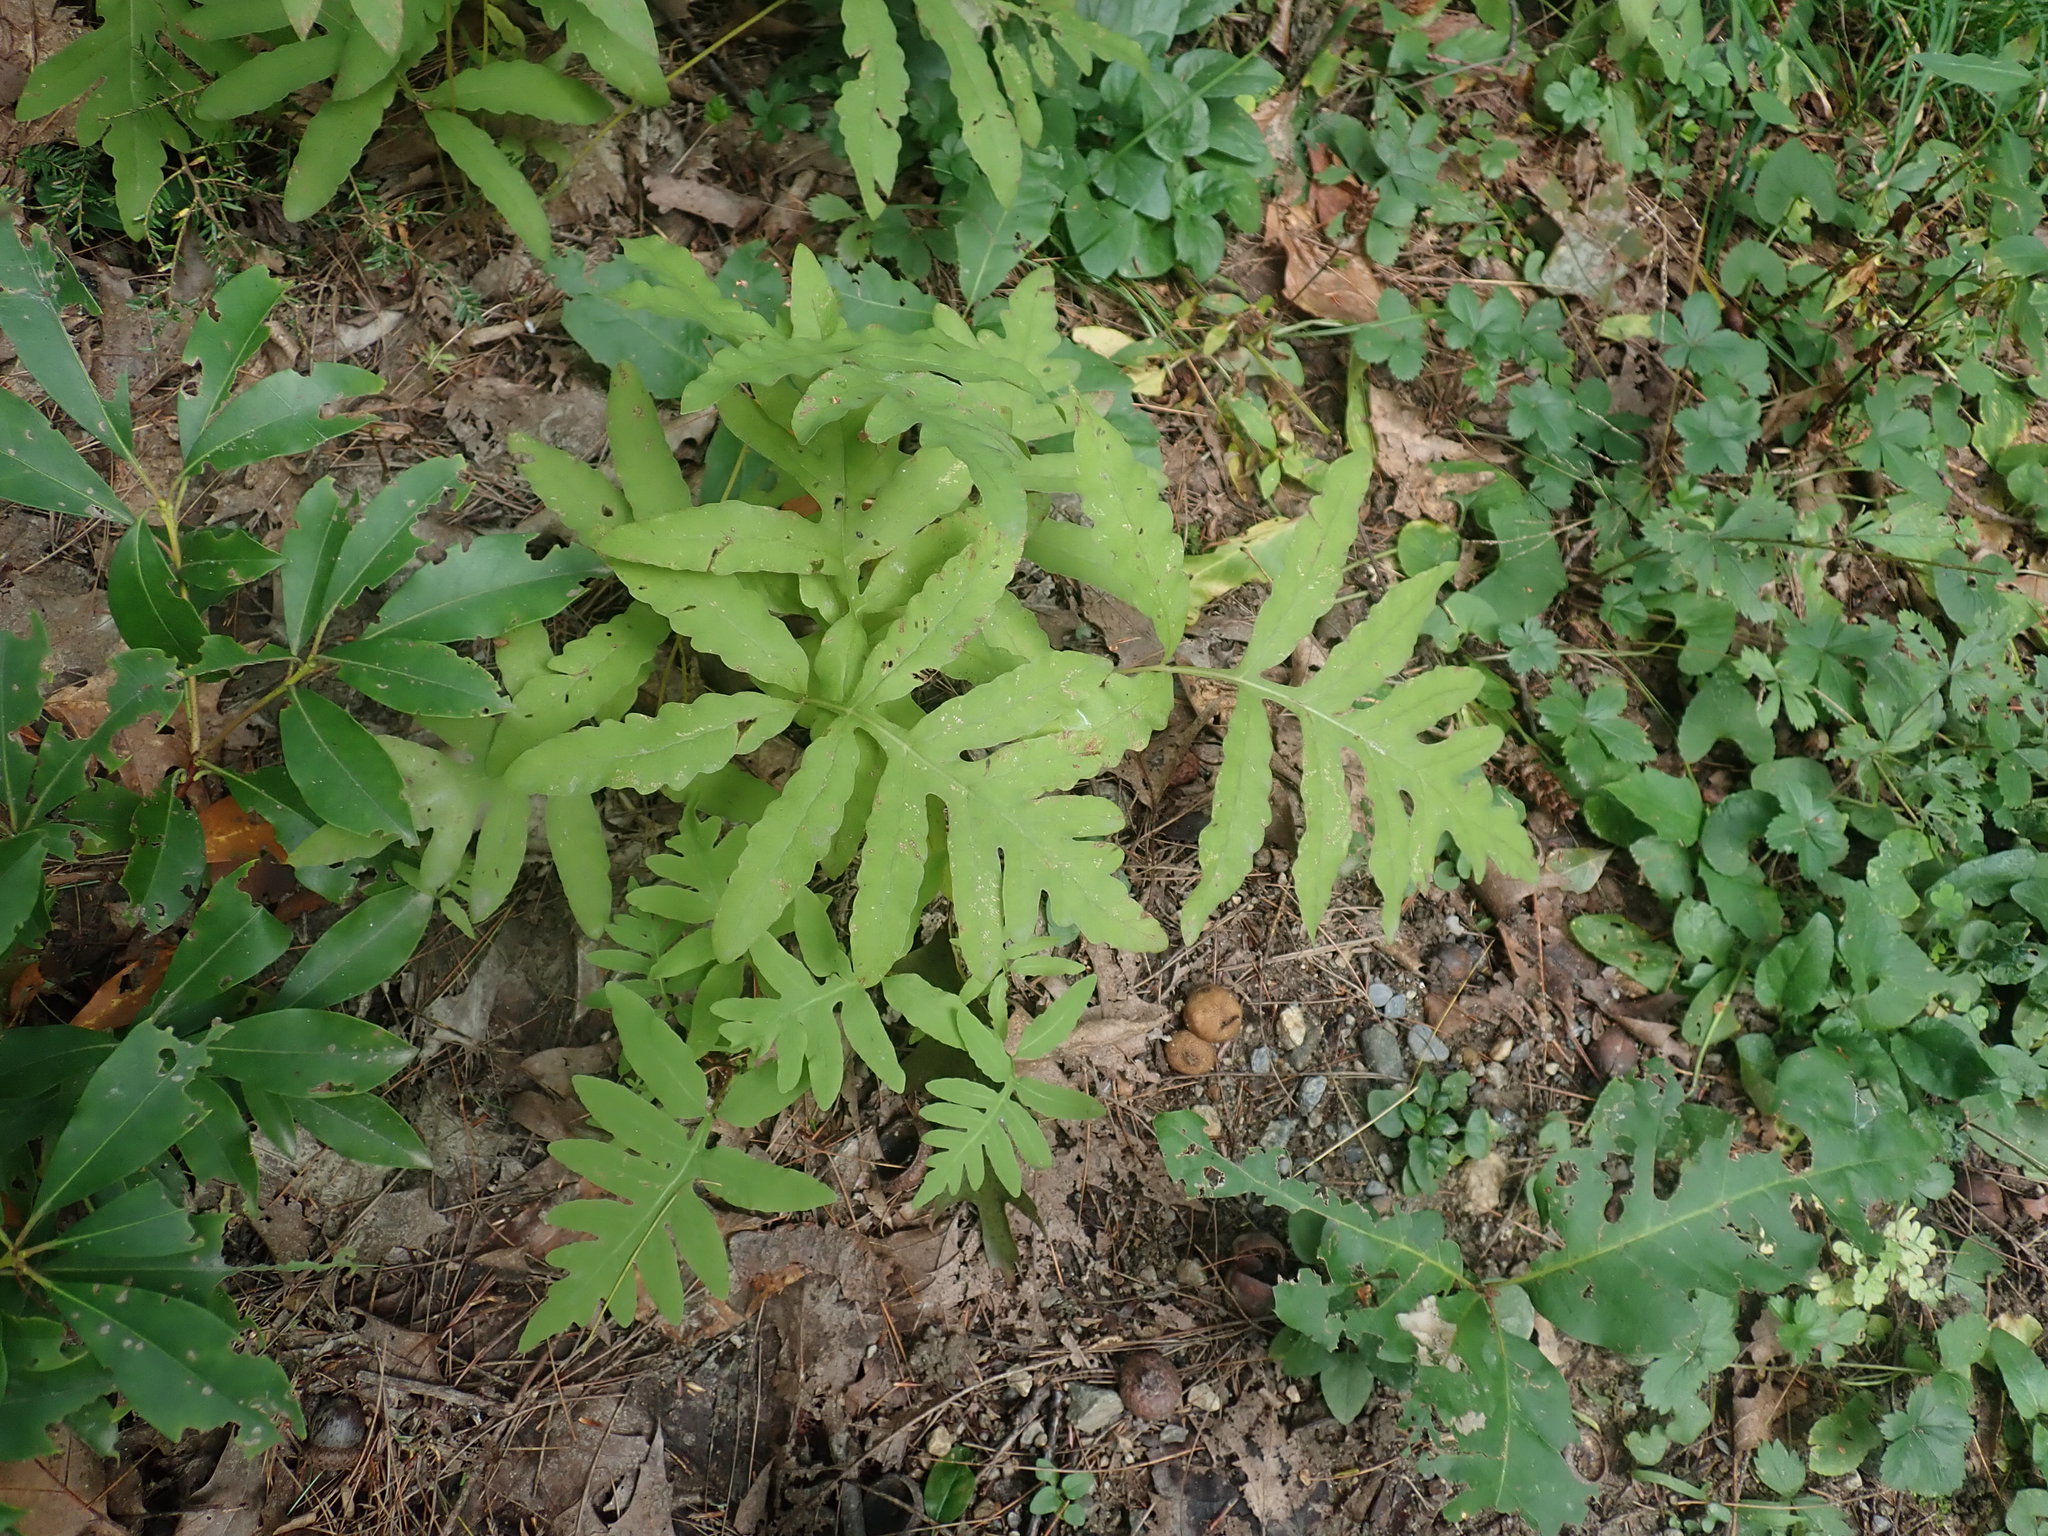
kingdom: Plantae
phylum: Tracheophyta
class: Polypodiopsida
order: Polypodiales
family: Onocleaceae
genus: Onoclea
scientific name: Onoclea sensibilis
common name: Sensitive fern
